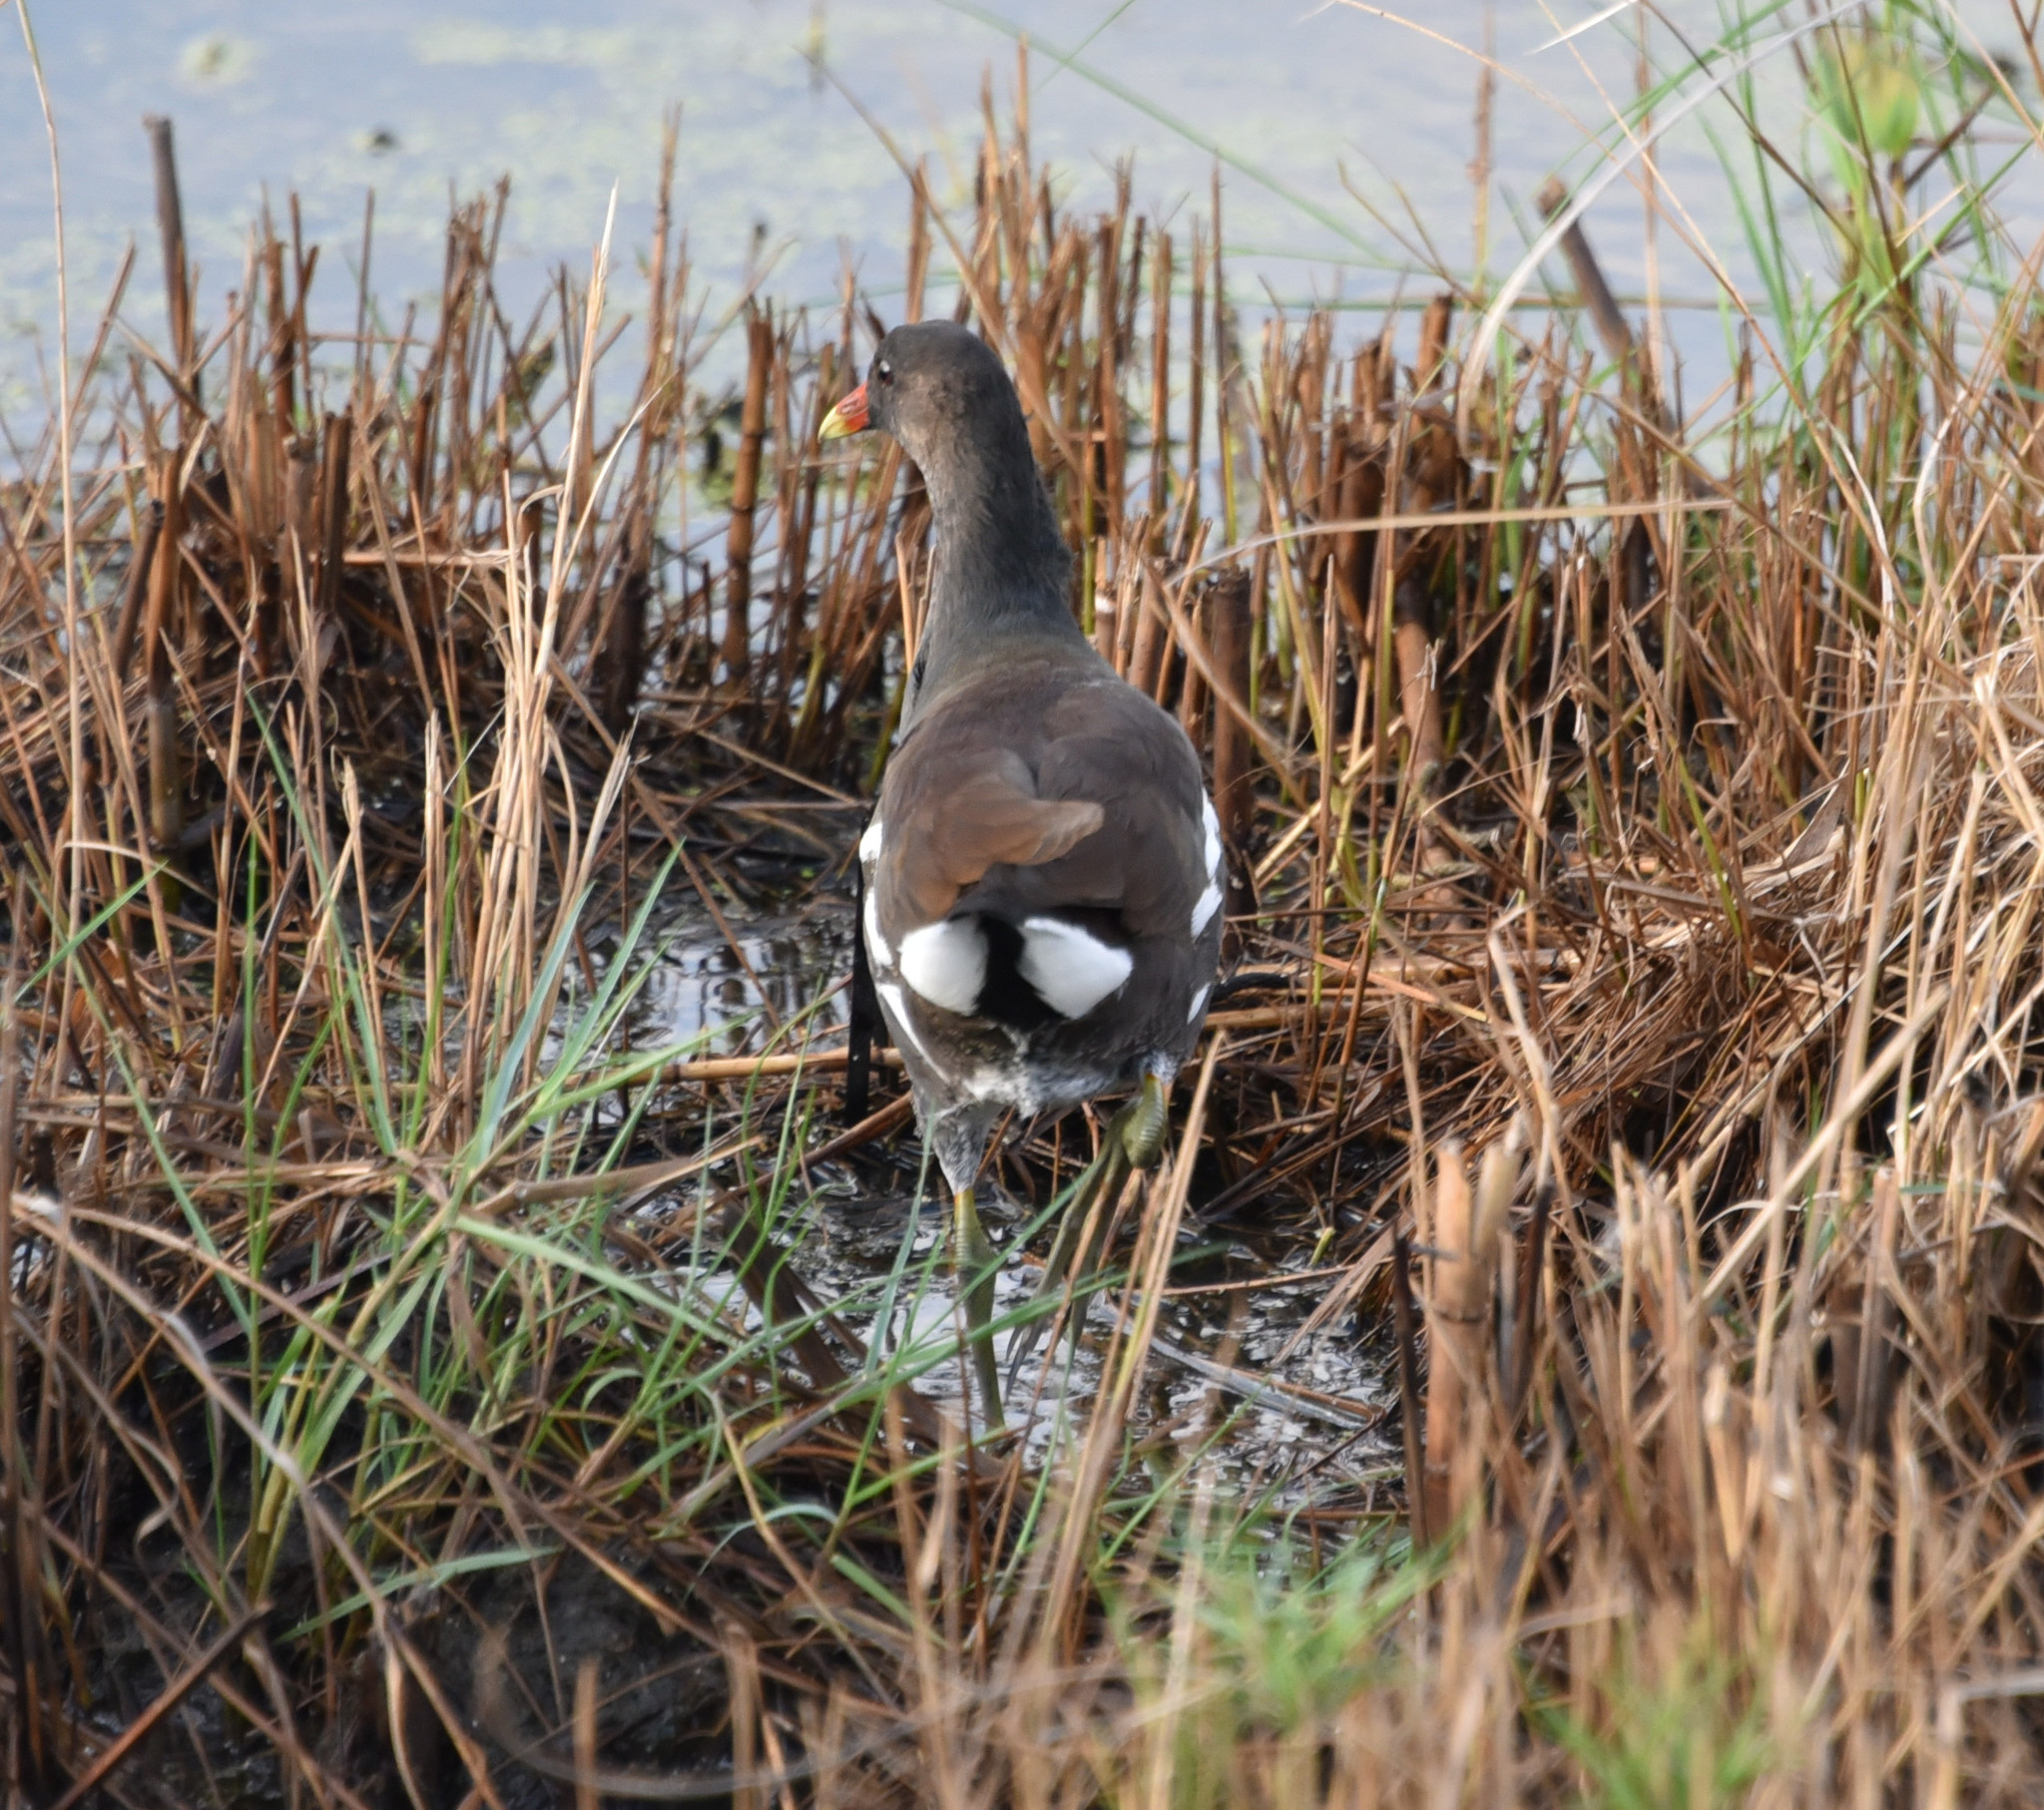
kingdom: Animalia
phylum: Chordata
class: Aves
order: Gruiformes
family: Rallidae
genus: Gallinula
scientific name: Gallinula chloropus
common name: Common moorhen
